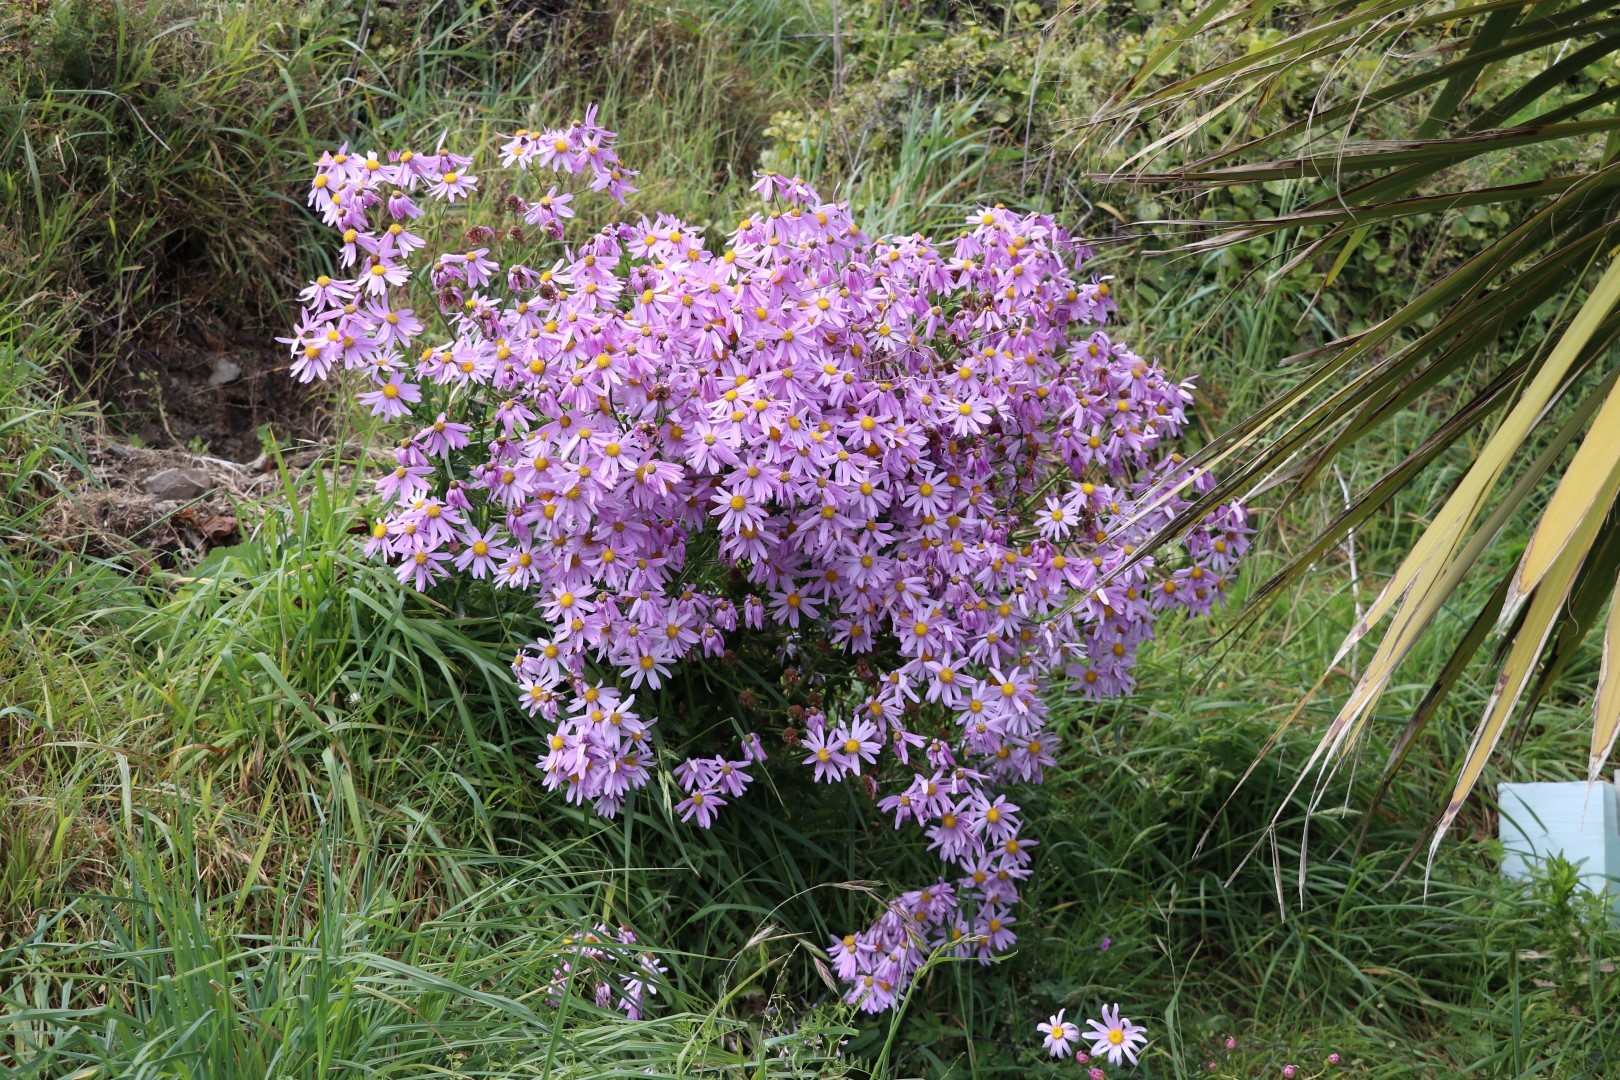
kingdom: Plantae
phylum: Tracheophyta
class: Magnoliopsida
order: Asterales
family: Asteraceae
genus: Senecio
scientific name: Senecio glastifolius
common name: Woad-leaved ragwort
